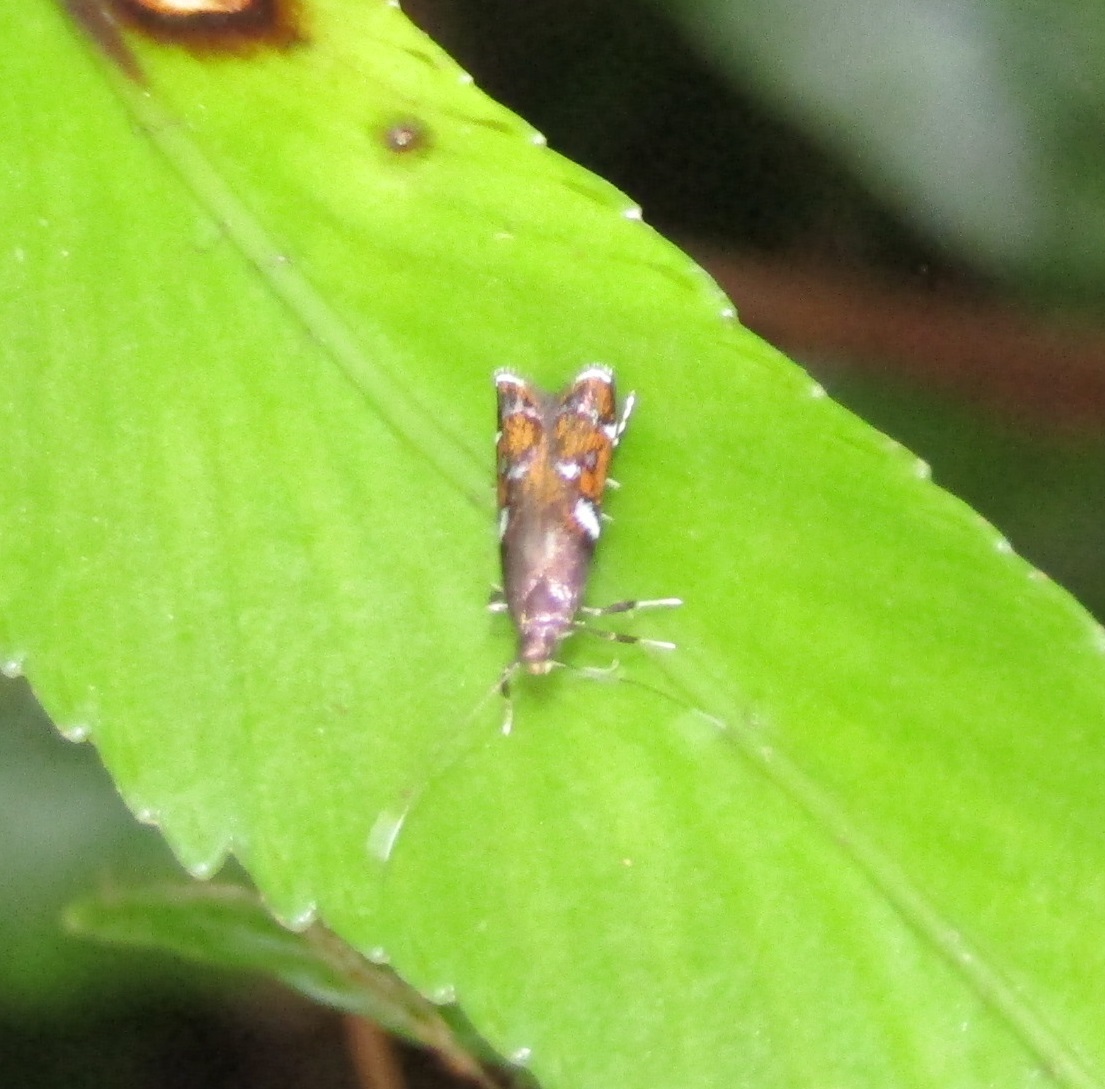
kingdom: Animalia
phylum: Arthropoda
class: Insecta
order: Lepidoptera
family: Depressariidae
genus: Compsistis
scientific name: Compsistis bifaciella
